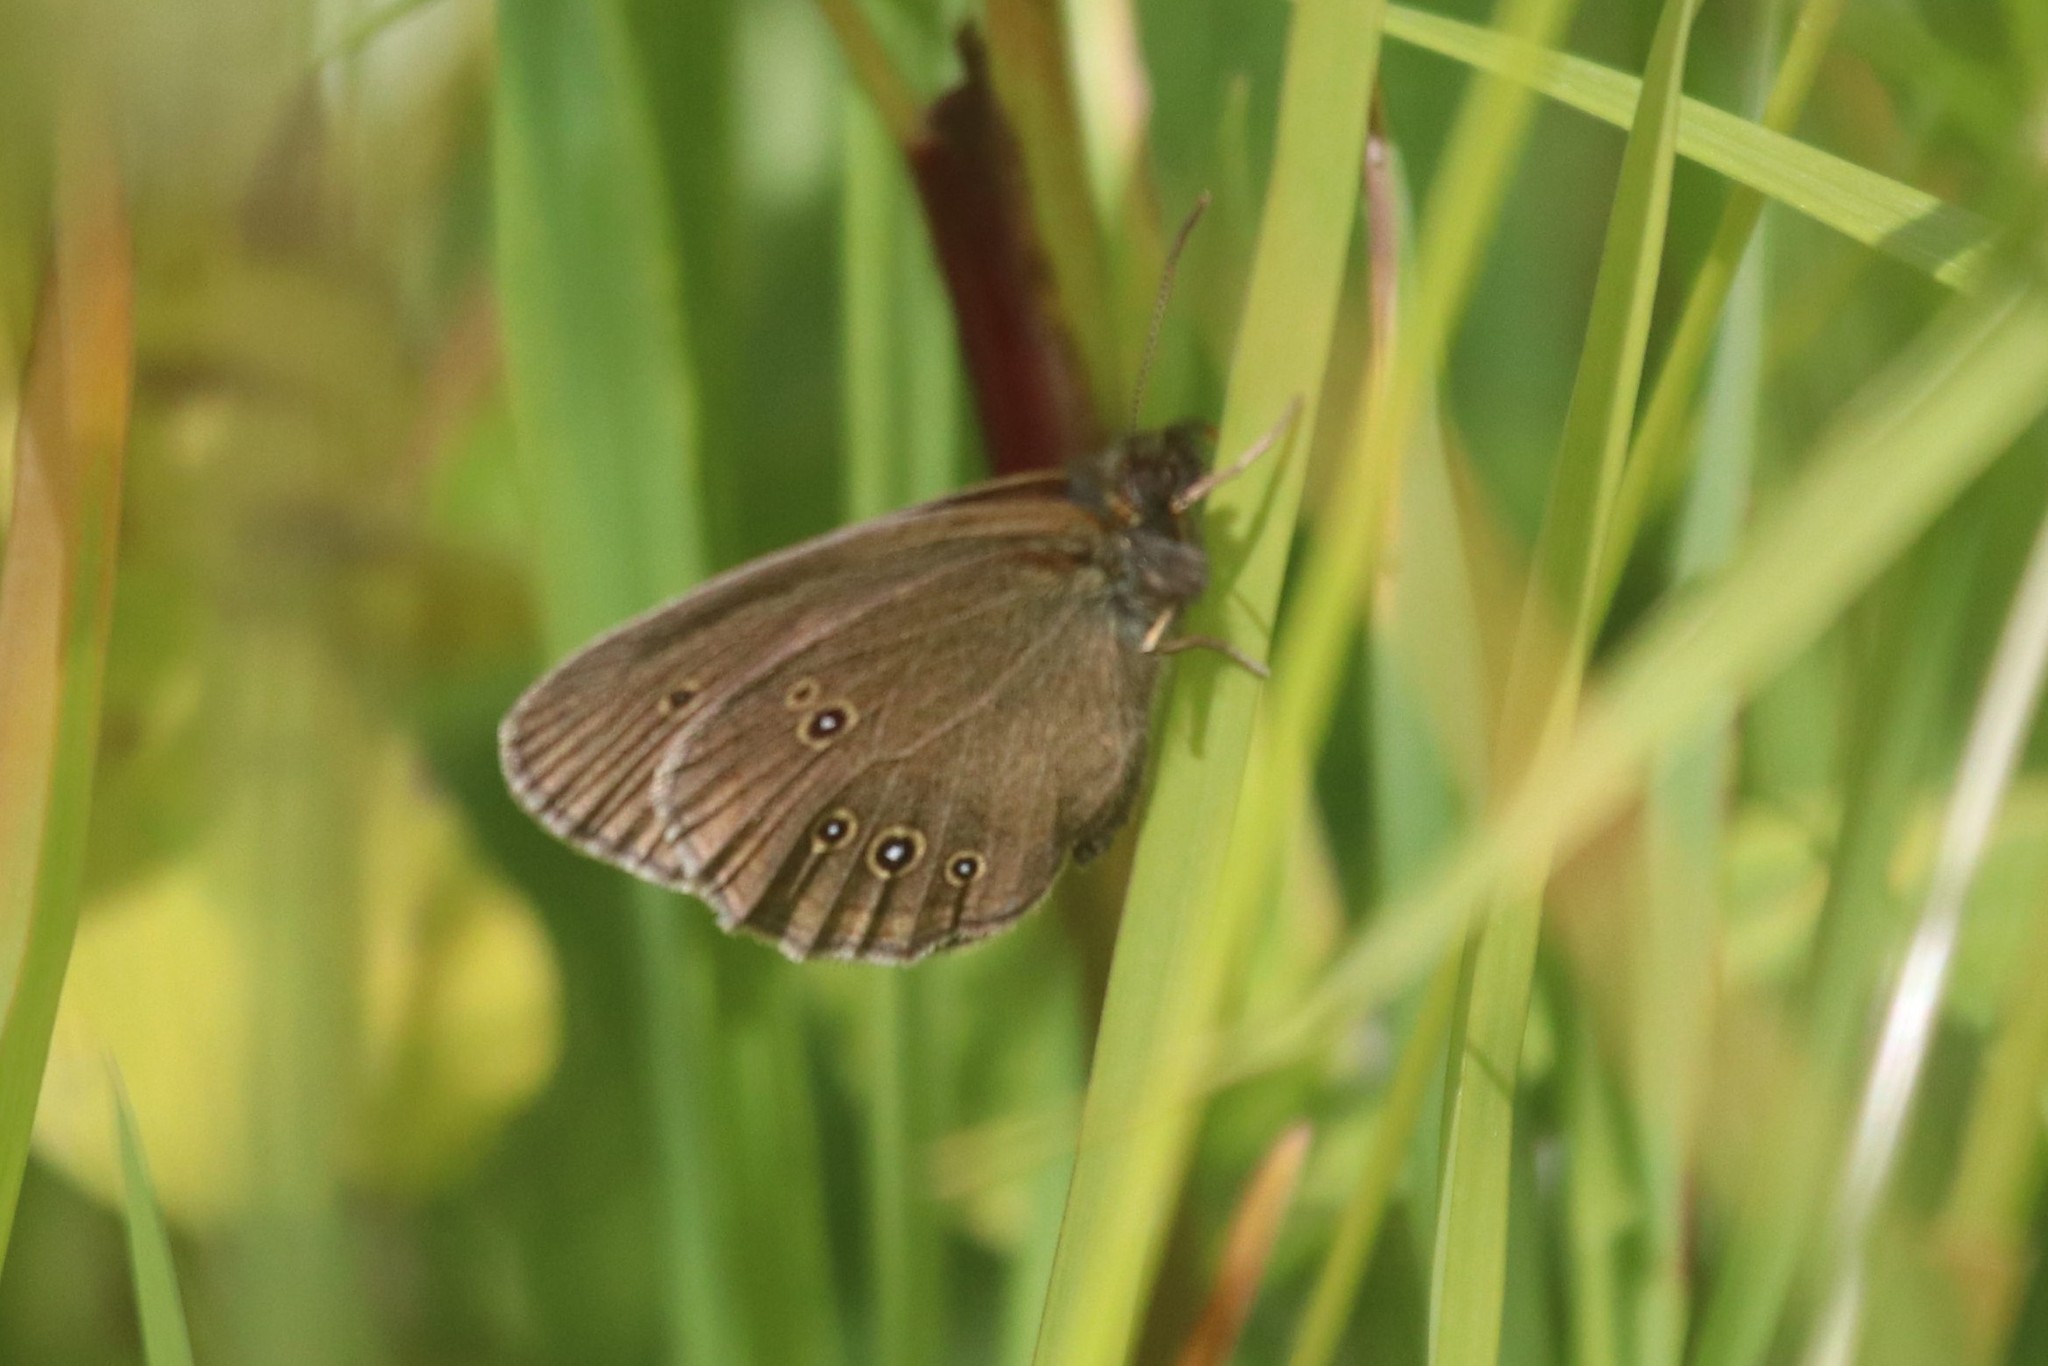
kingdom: Animalia
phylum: Arthropoda
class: Insecta
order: Lepidoptera
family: Nymphalidae
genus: Aphantopus
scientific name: Aphantopus hyperantus
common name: Ringlet
